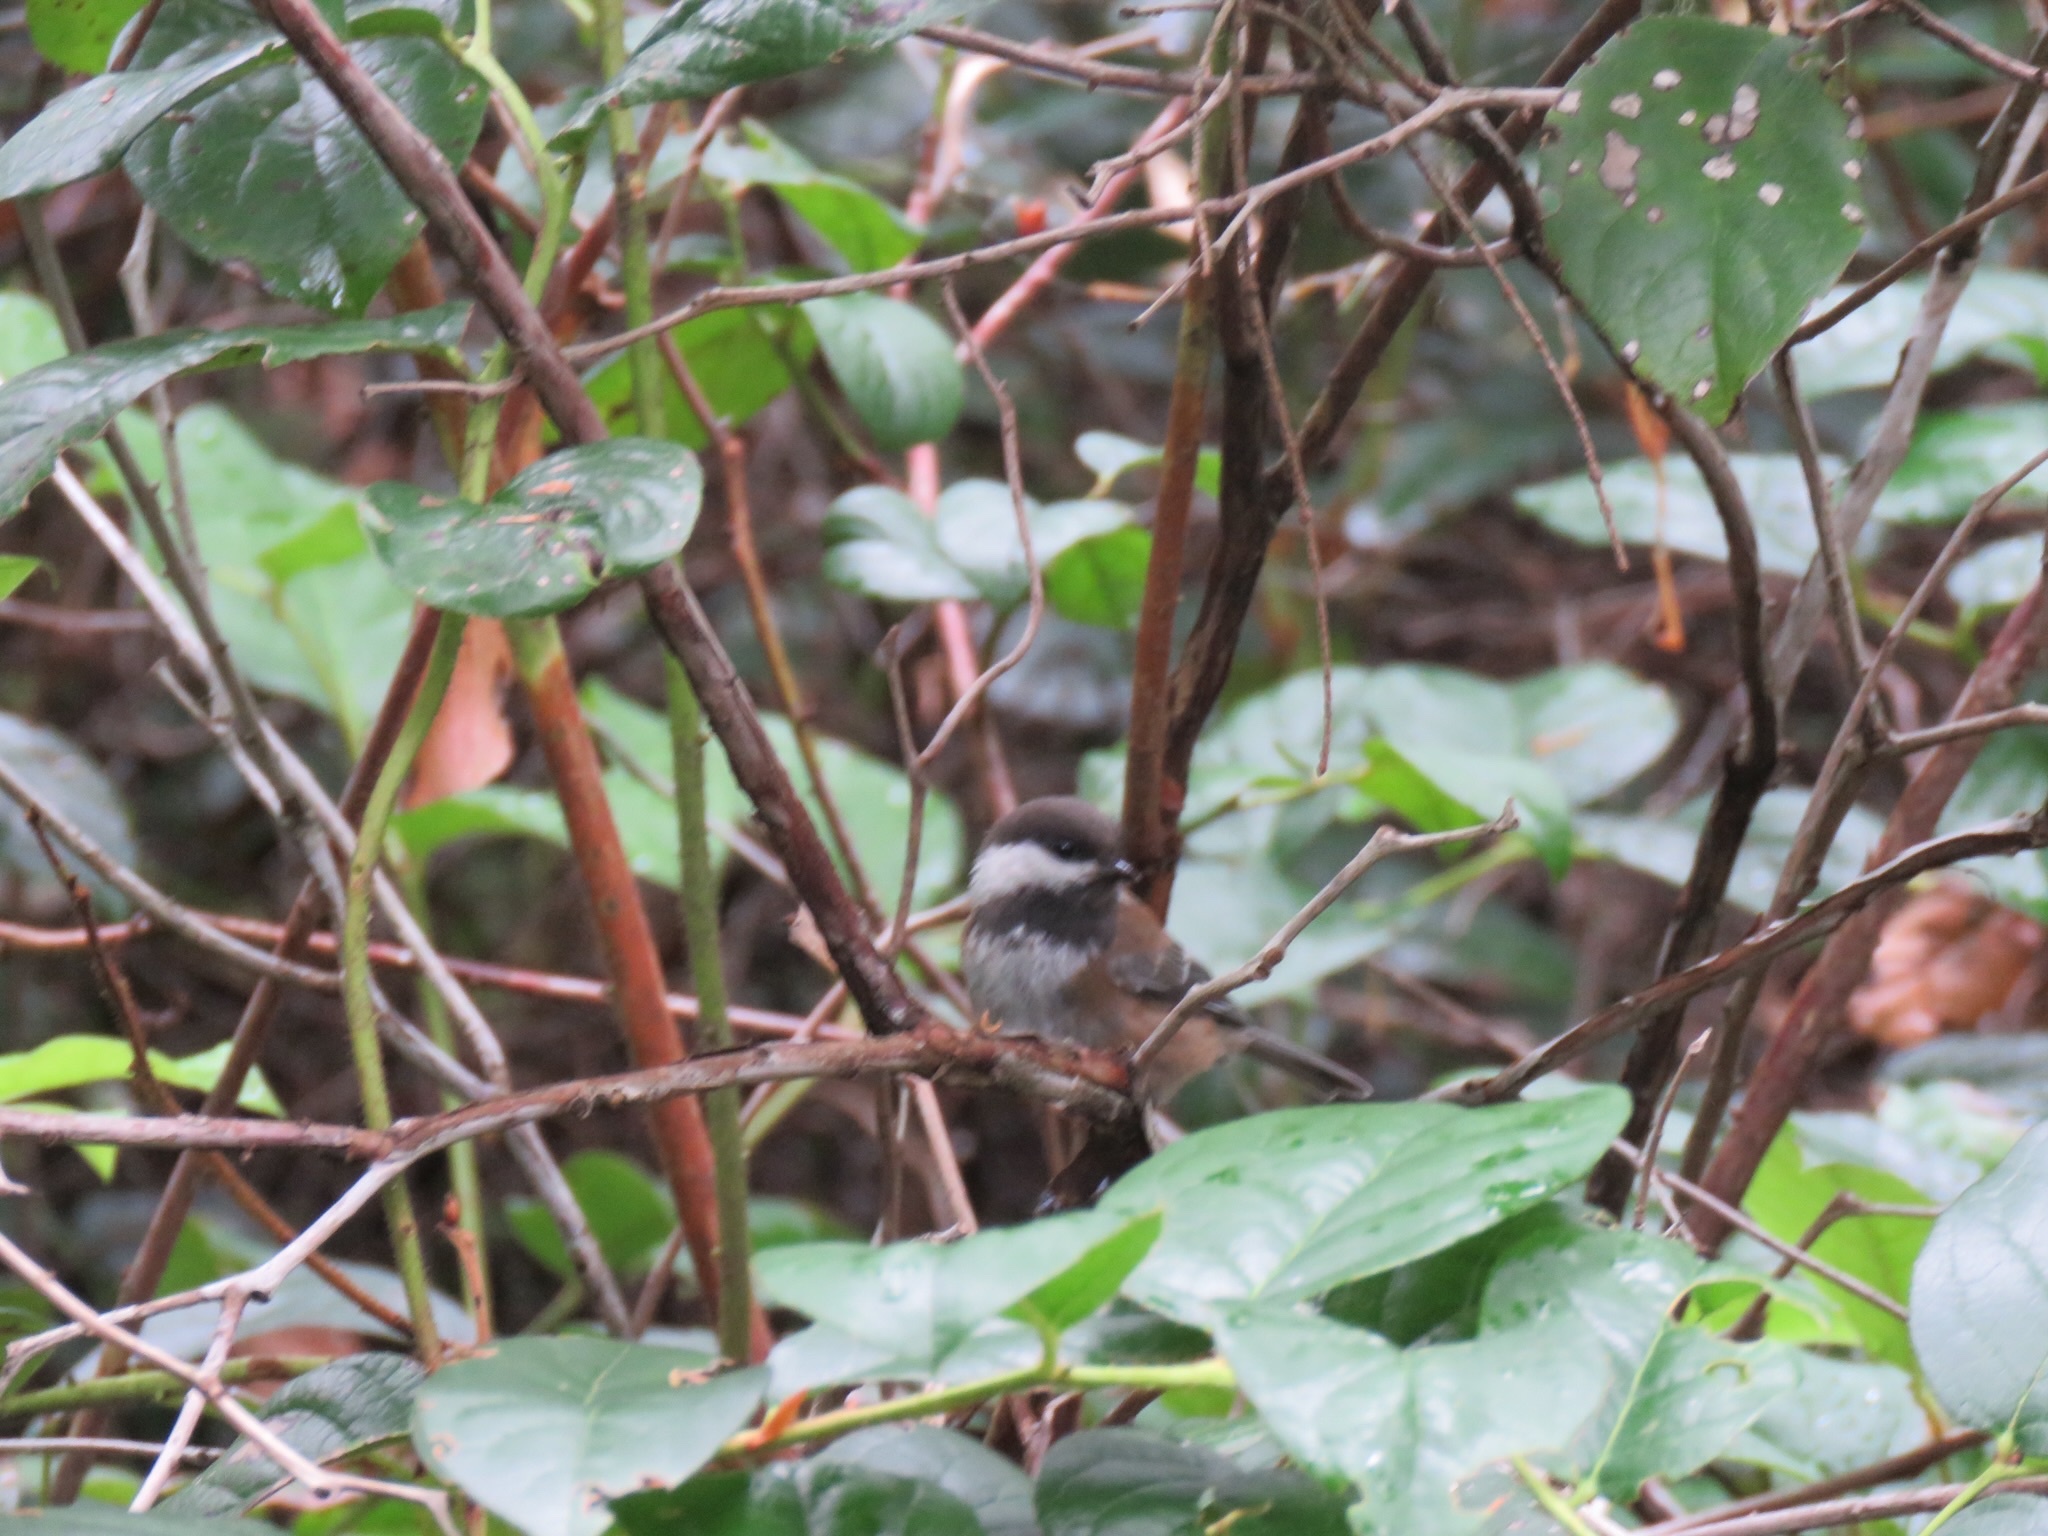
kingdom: Animalia
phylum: Chordata
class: Aves
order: Passeriformes
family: Paridae
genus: Poecile
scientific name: Poecile rufescens
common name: Chestnut-backed chickadee
